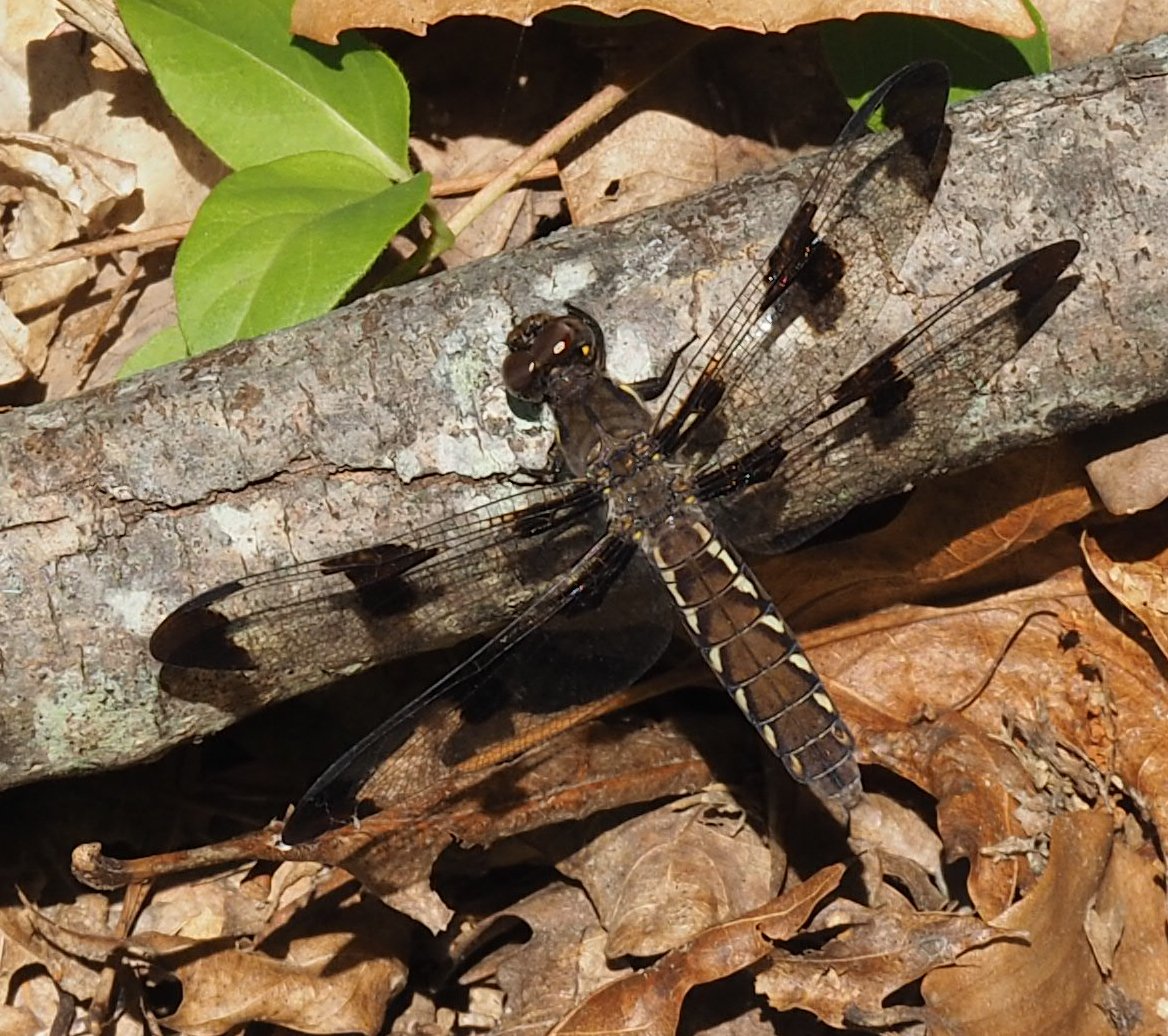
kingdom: Animalia
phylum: Arthropoda
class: Insecta
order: Odonata
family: Libellulidae
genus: Plathemis
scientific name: Plathemis lydia
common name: Common whitetail
